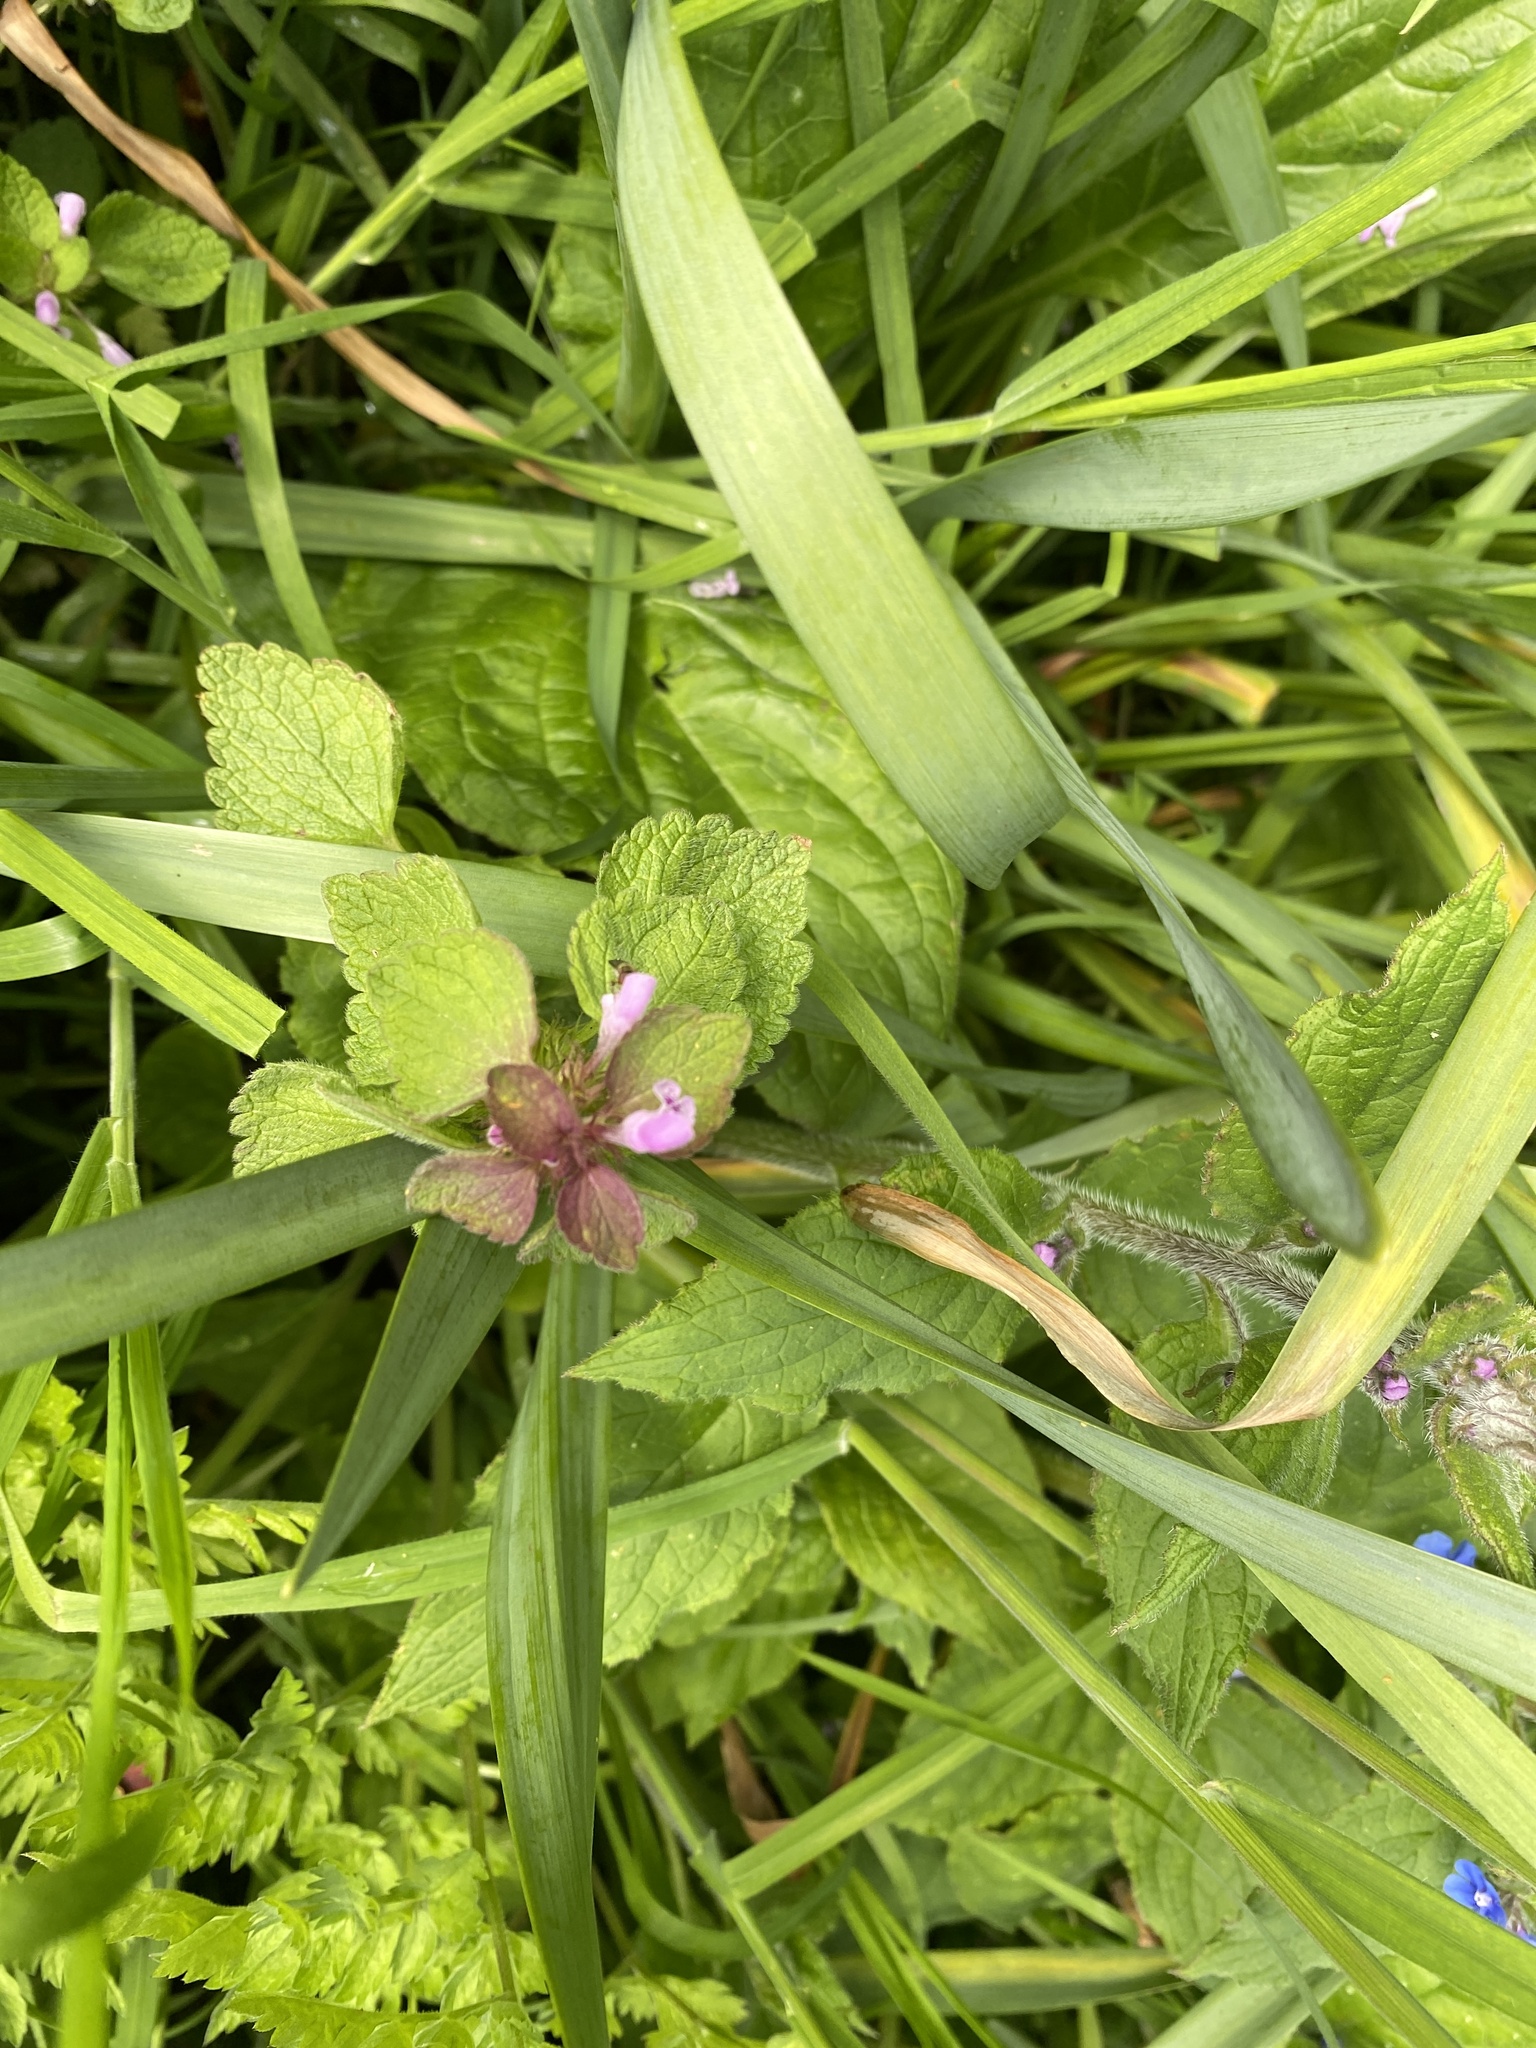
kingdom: Plantae
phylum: Tracheophyta
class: Magnoliopsida
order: Lamiales
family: Lamiaceae
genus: Lamium
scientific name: Lamium purpureum
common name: Red dead-nettle
